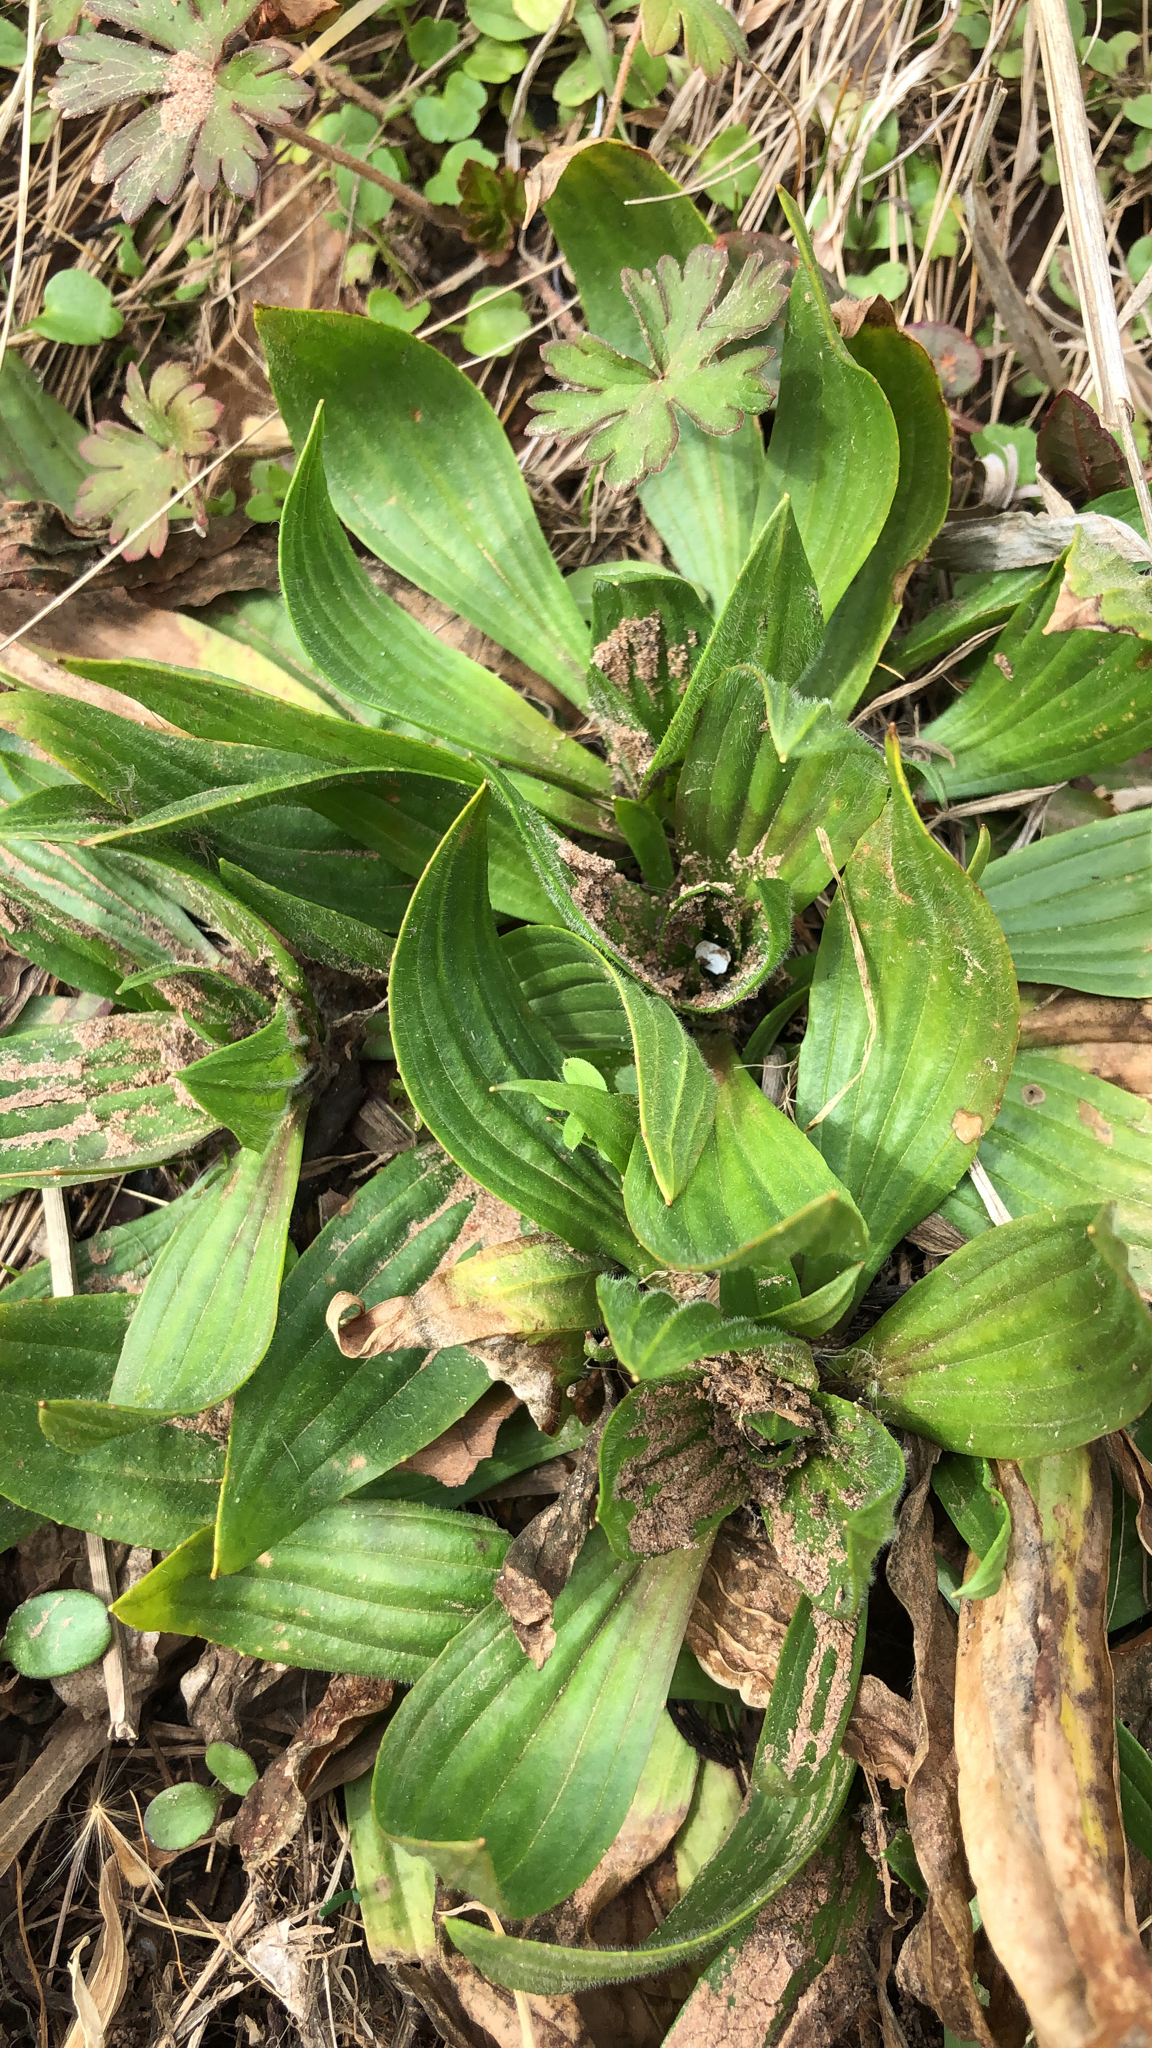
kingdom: Plantae
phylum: Tracheophyta
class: Magnoliopsida
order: Lamiales
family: Plantaginaceae
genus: Plantago
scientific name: Plantago lanceolata
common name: Ribwort plantain
